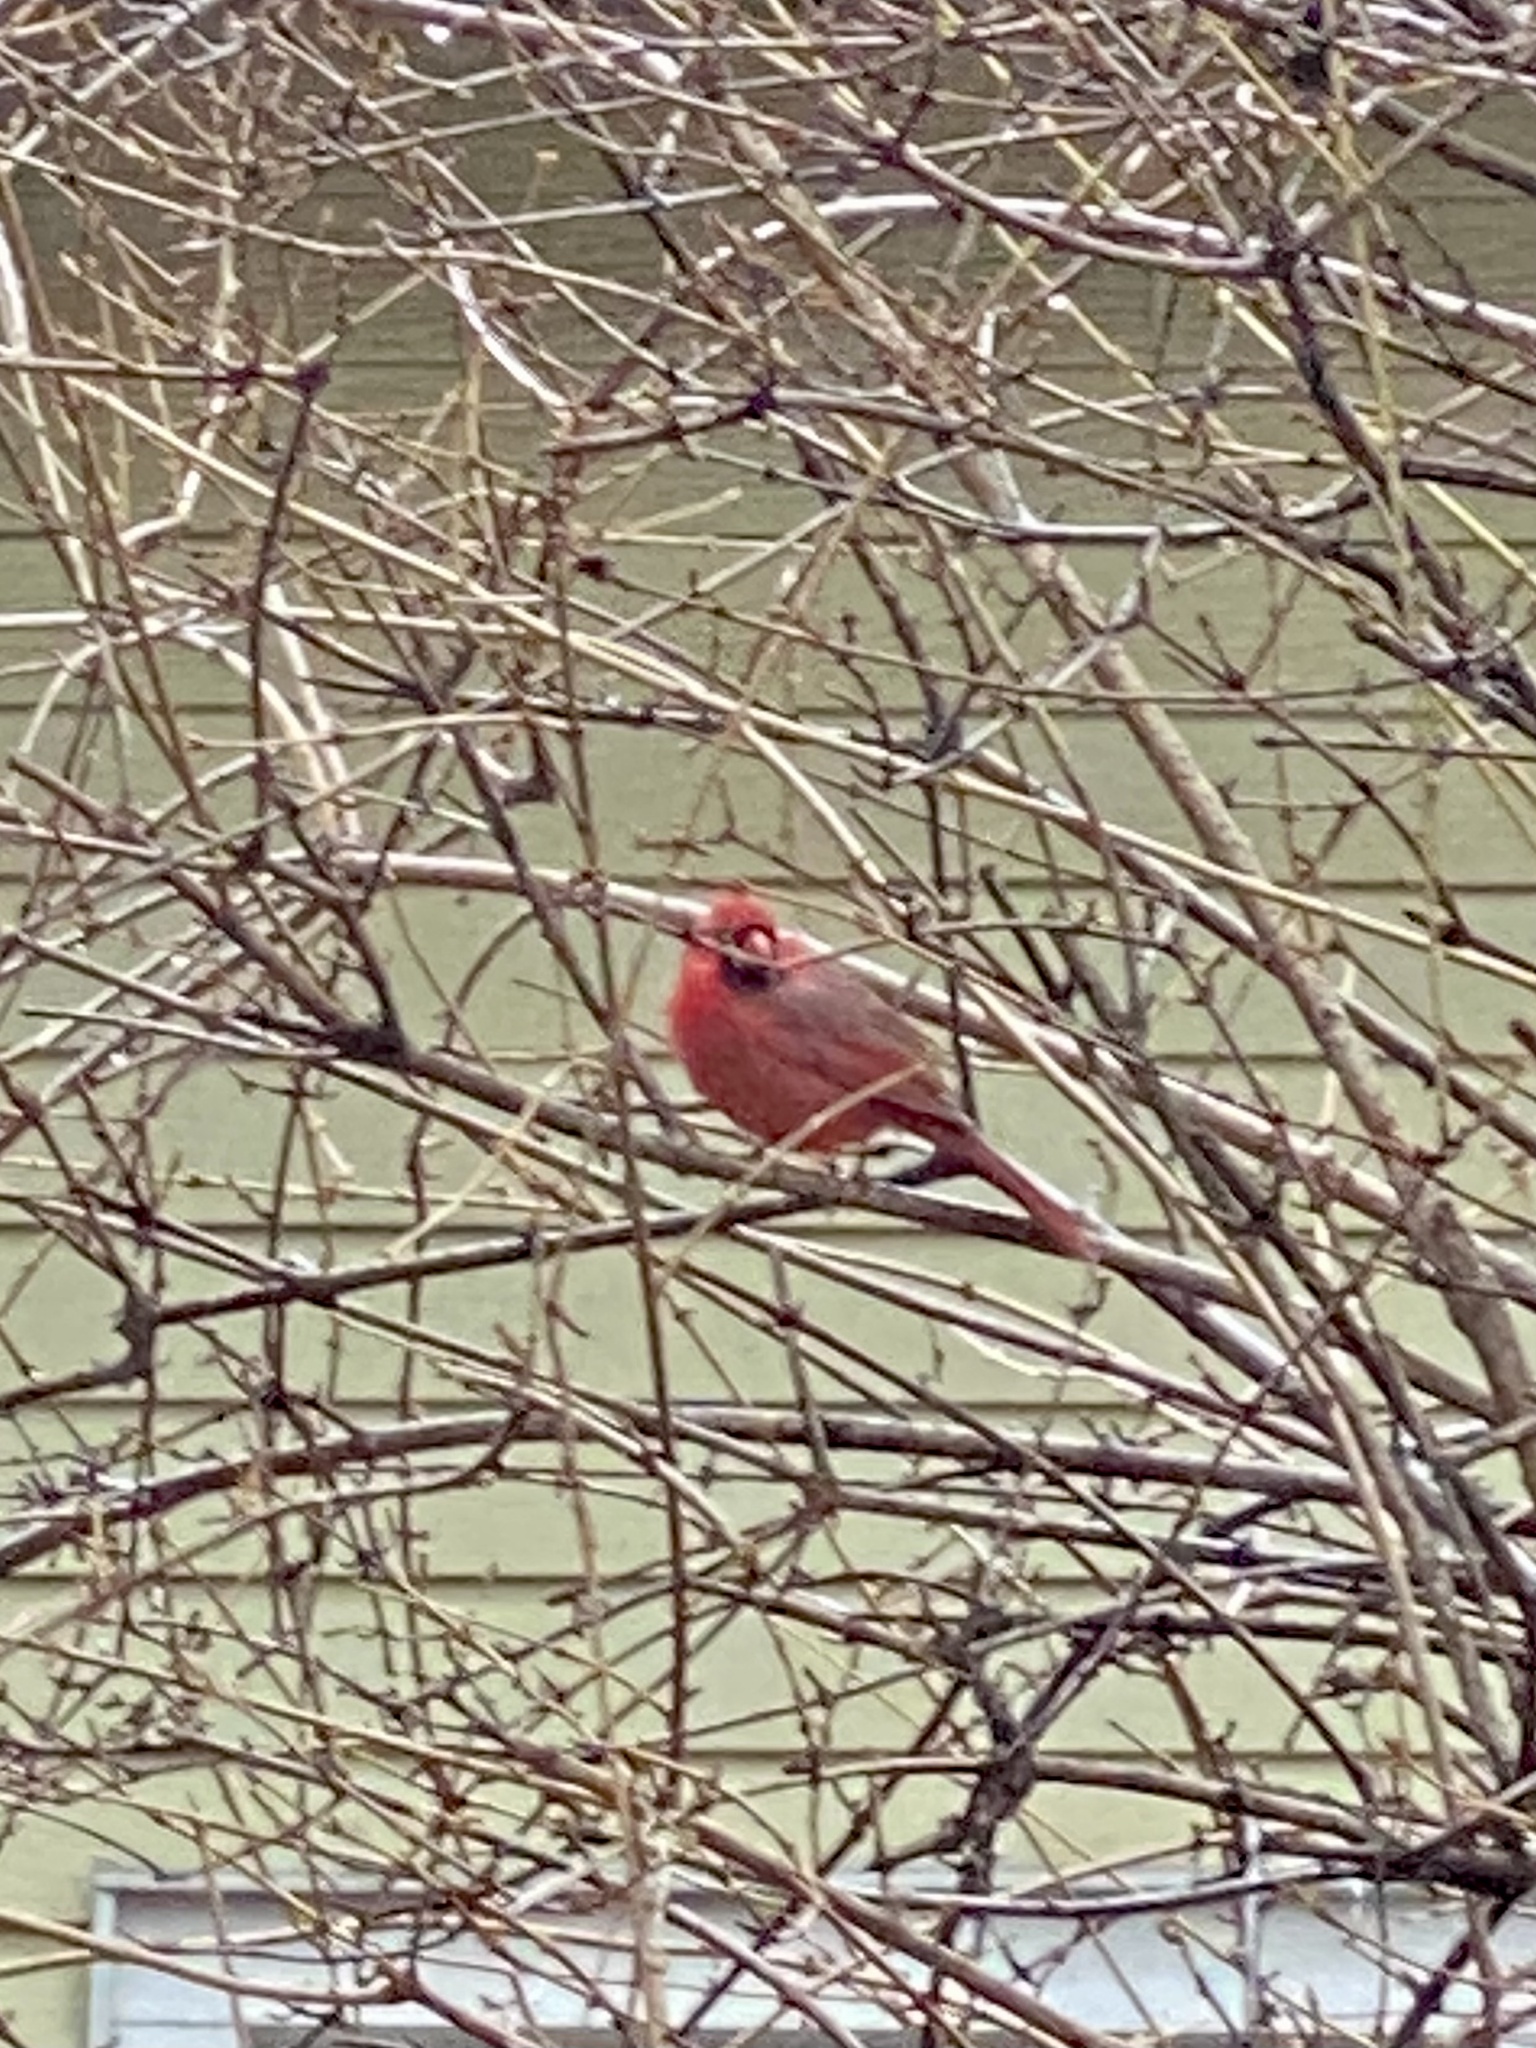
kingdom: Animalia
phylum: Chordata
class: Aves
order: Passeriformes
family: Cardinalidae
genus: Cardinalis
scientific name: Cardinalis cardinalis
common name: Northern cardinal
